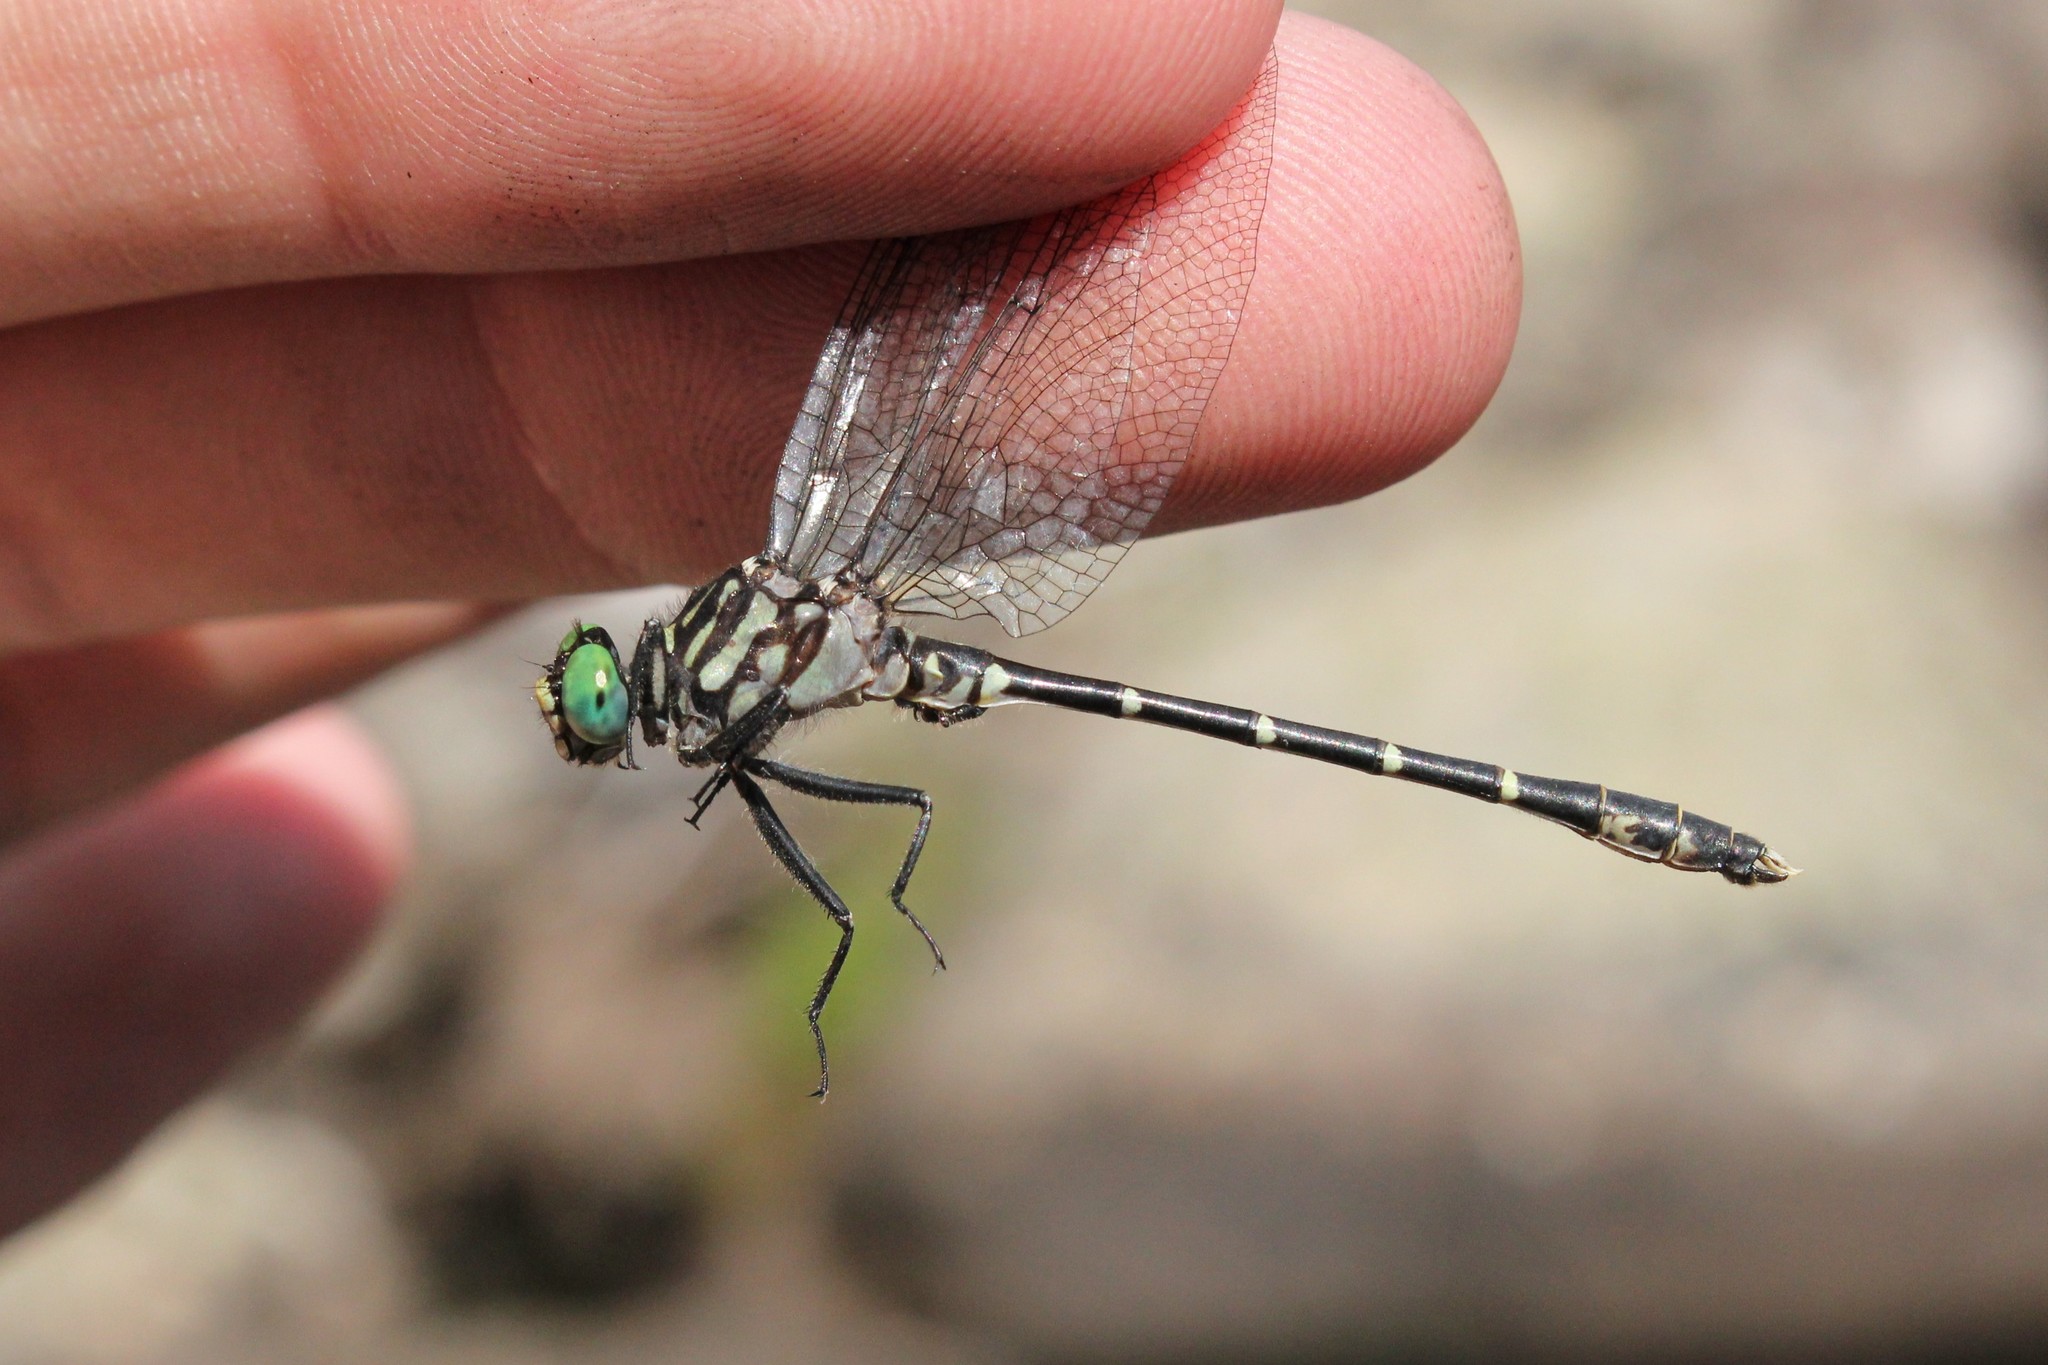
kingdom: Animalia
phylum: Arthropoda
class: Insecta
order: Odonata
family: Gomphidae
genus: Stylogomphus
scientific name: Stylogomphus albistylus
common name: Eastern least clubtail
